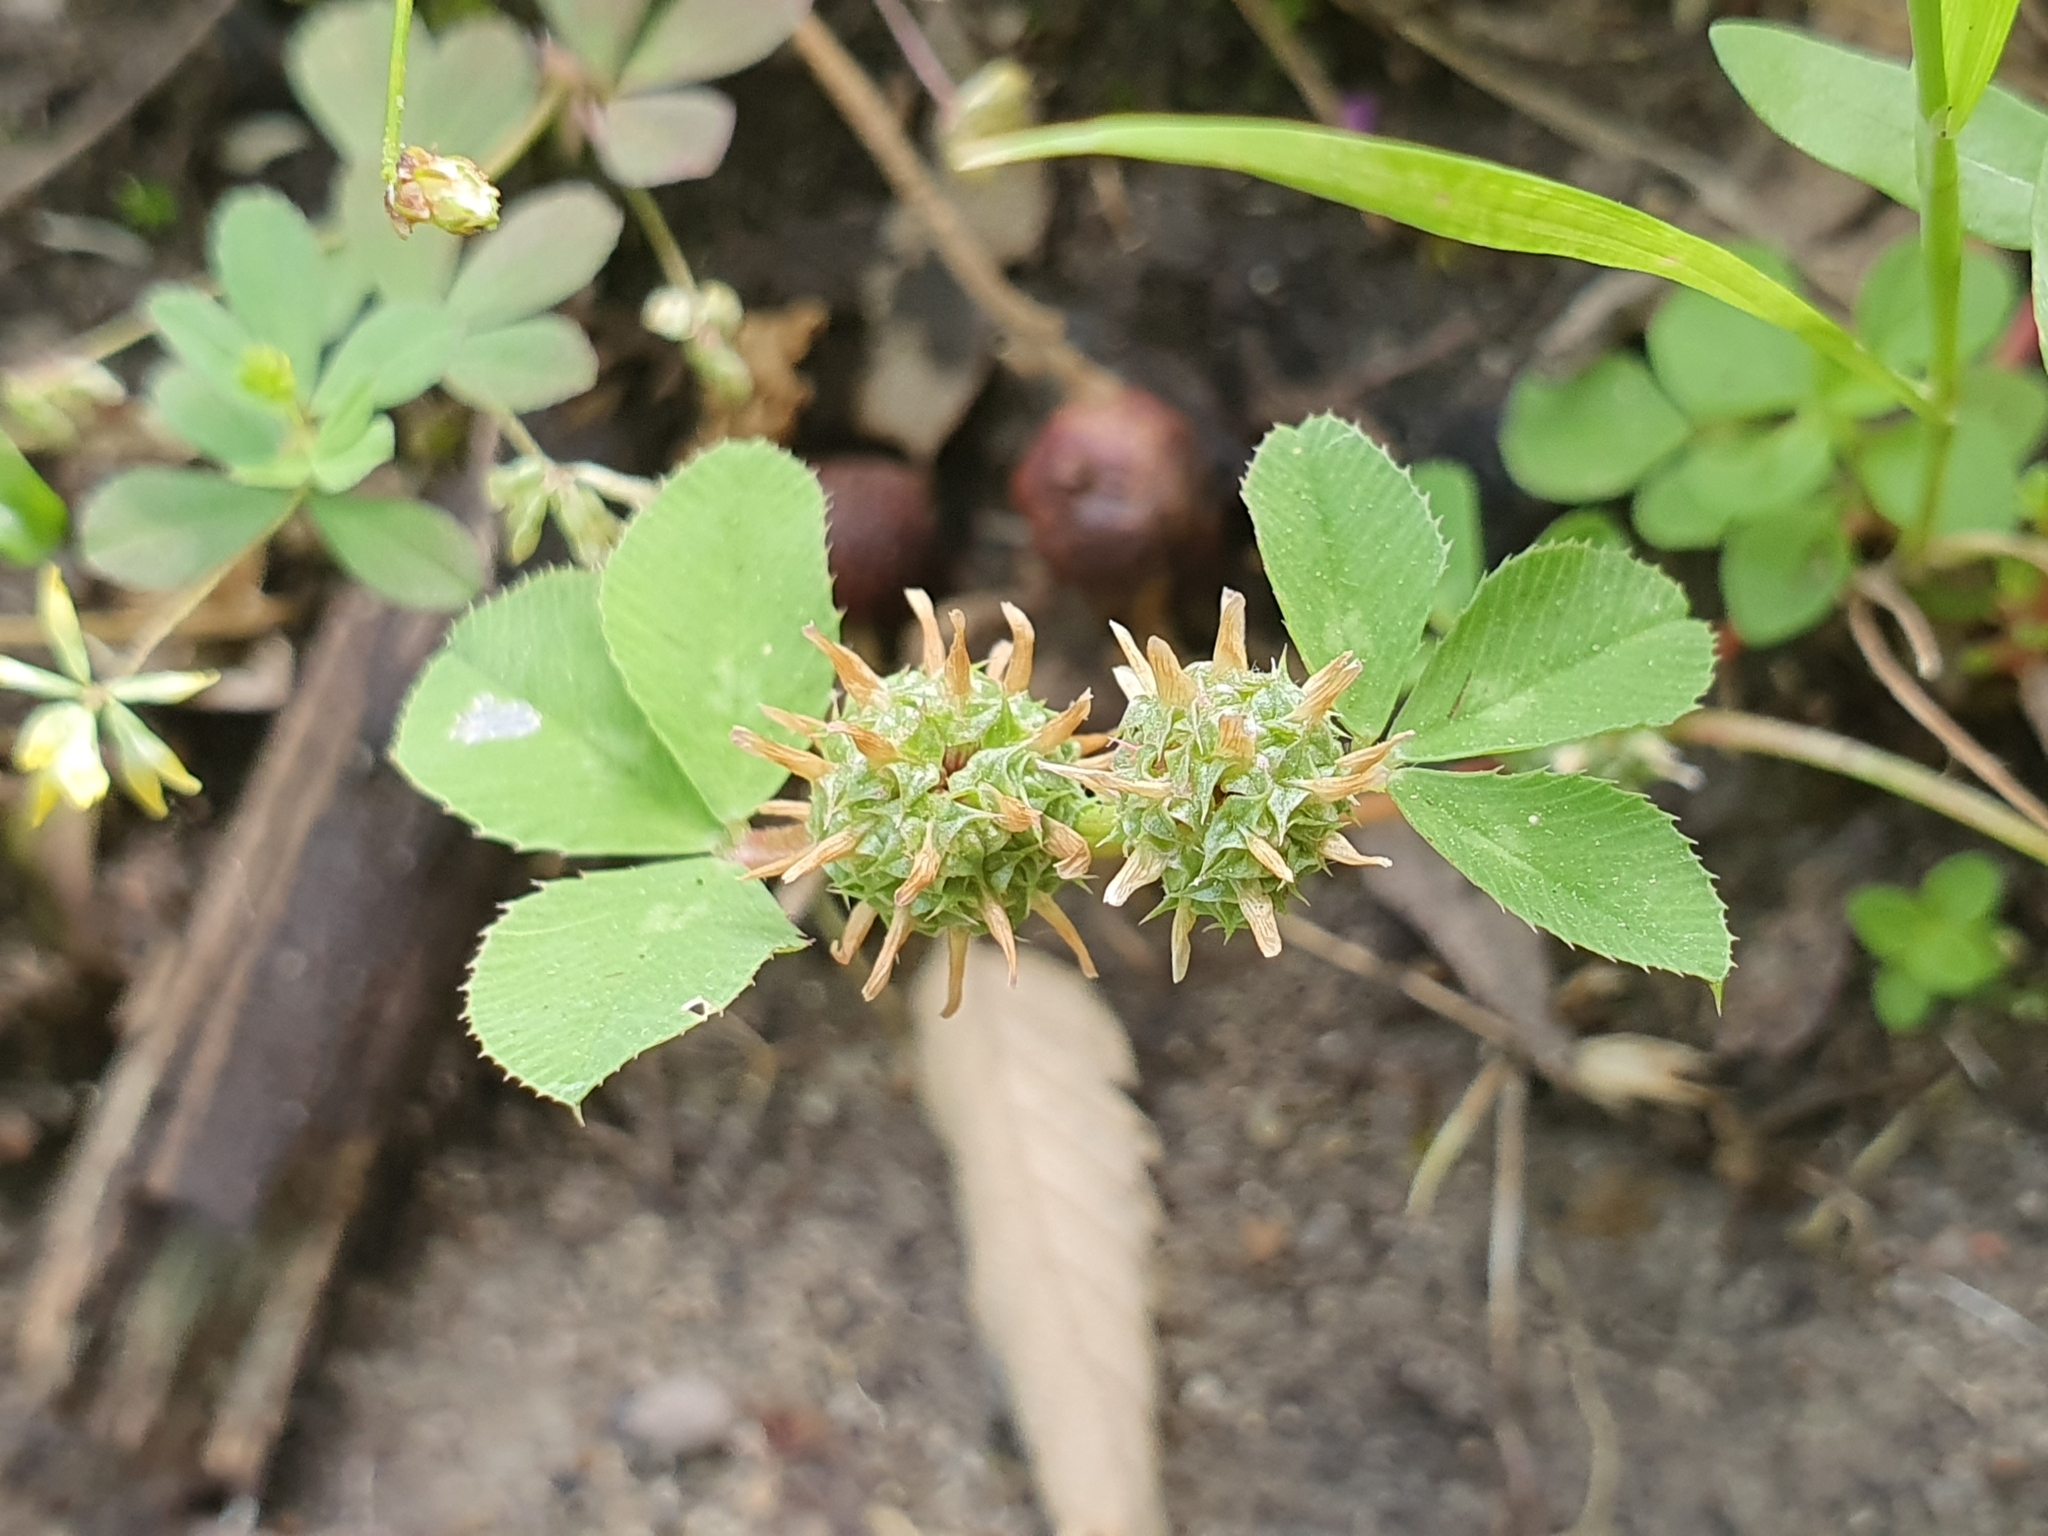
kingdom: Plantae
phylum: Tracheophyta
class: Magnoliopsida
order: Fabales
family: Fabaceae
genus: Trifolium
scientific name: Trifolium glomeratum
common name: Clustered clover
